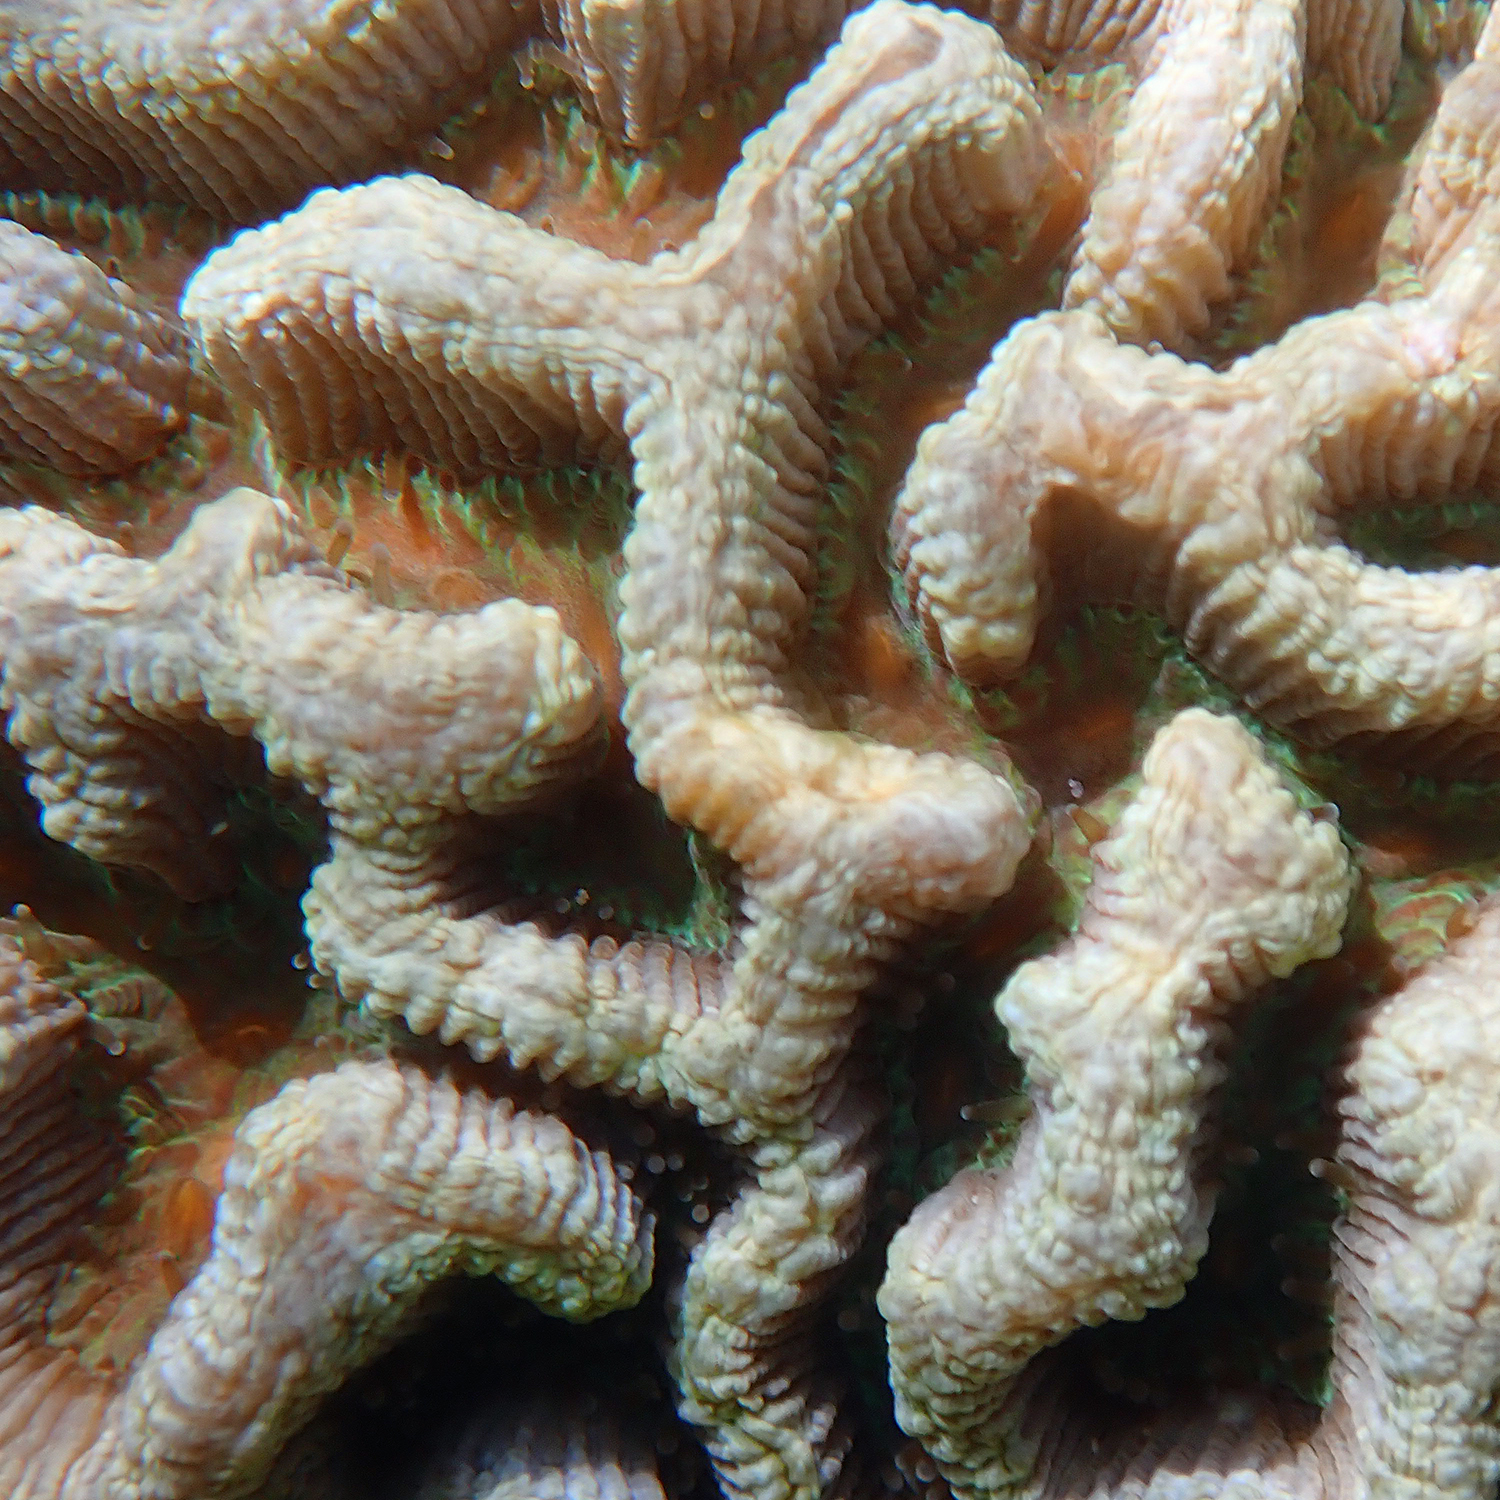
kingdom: Animalia
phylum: Cnidaria
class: Anthozoa
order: Scleractinia
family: Merulinidae
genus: Paragoniastrea
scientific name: Paragoniastrea australensis
